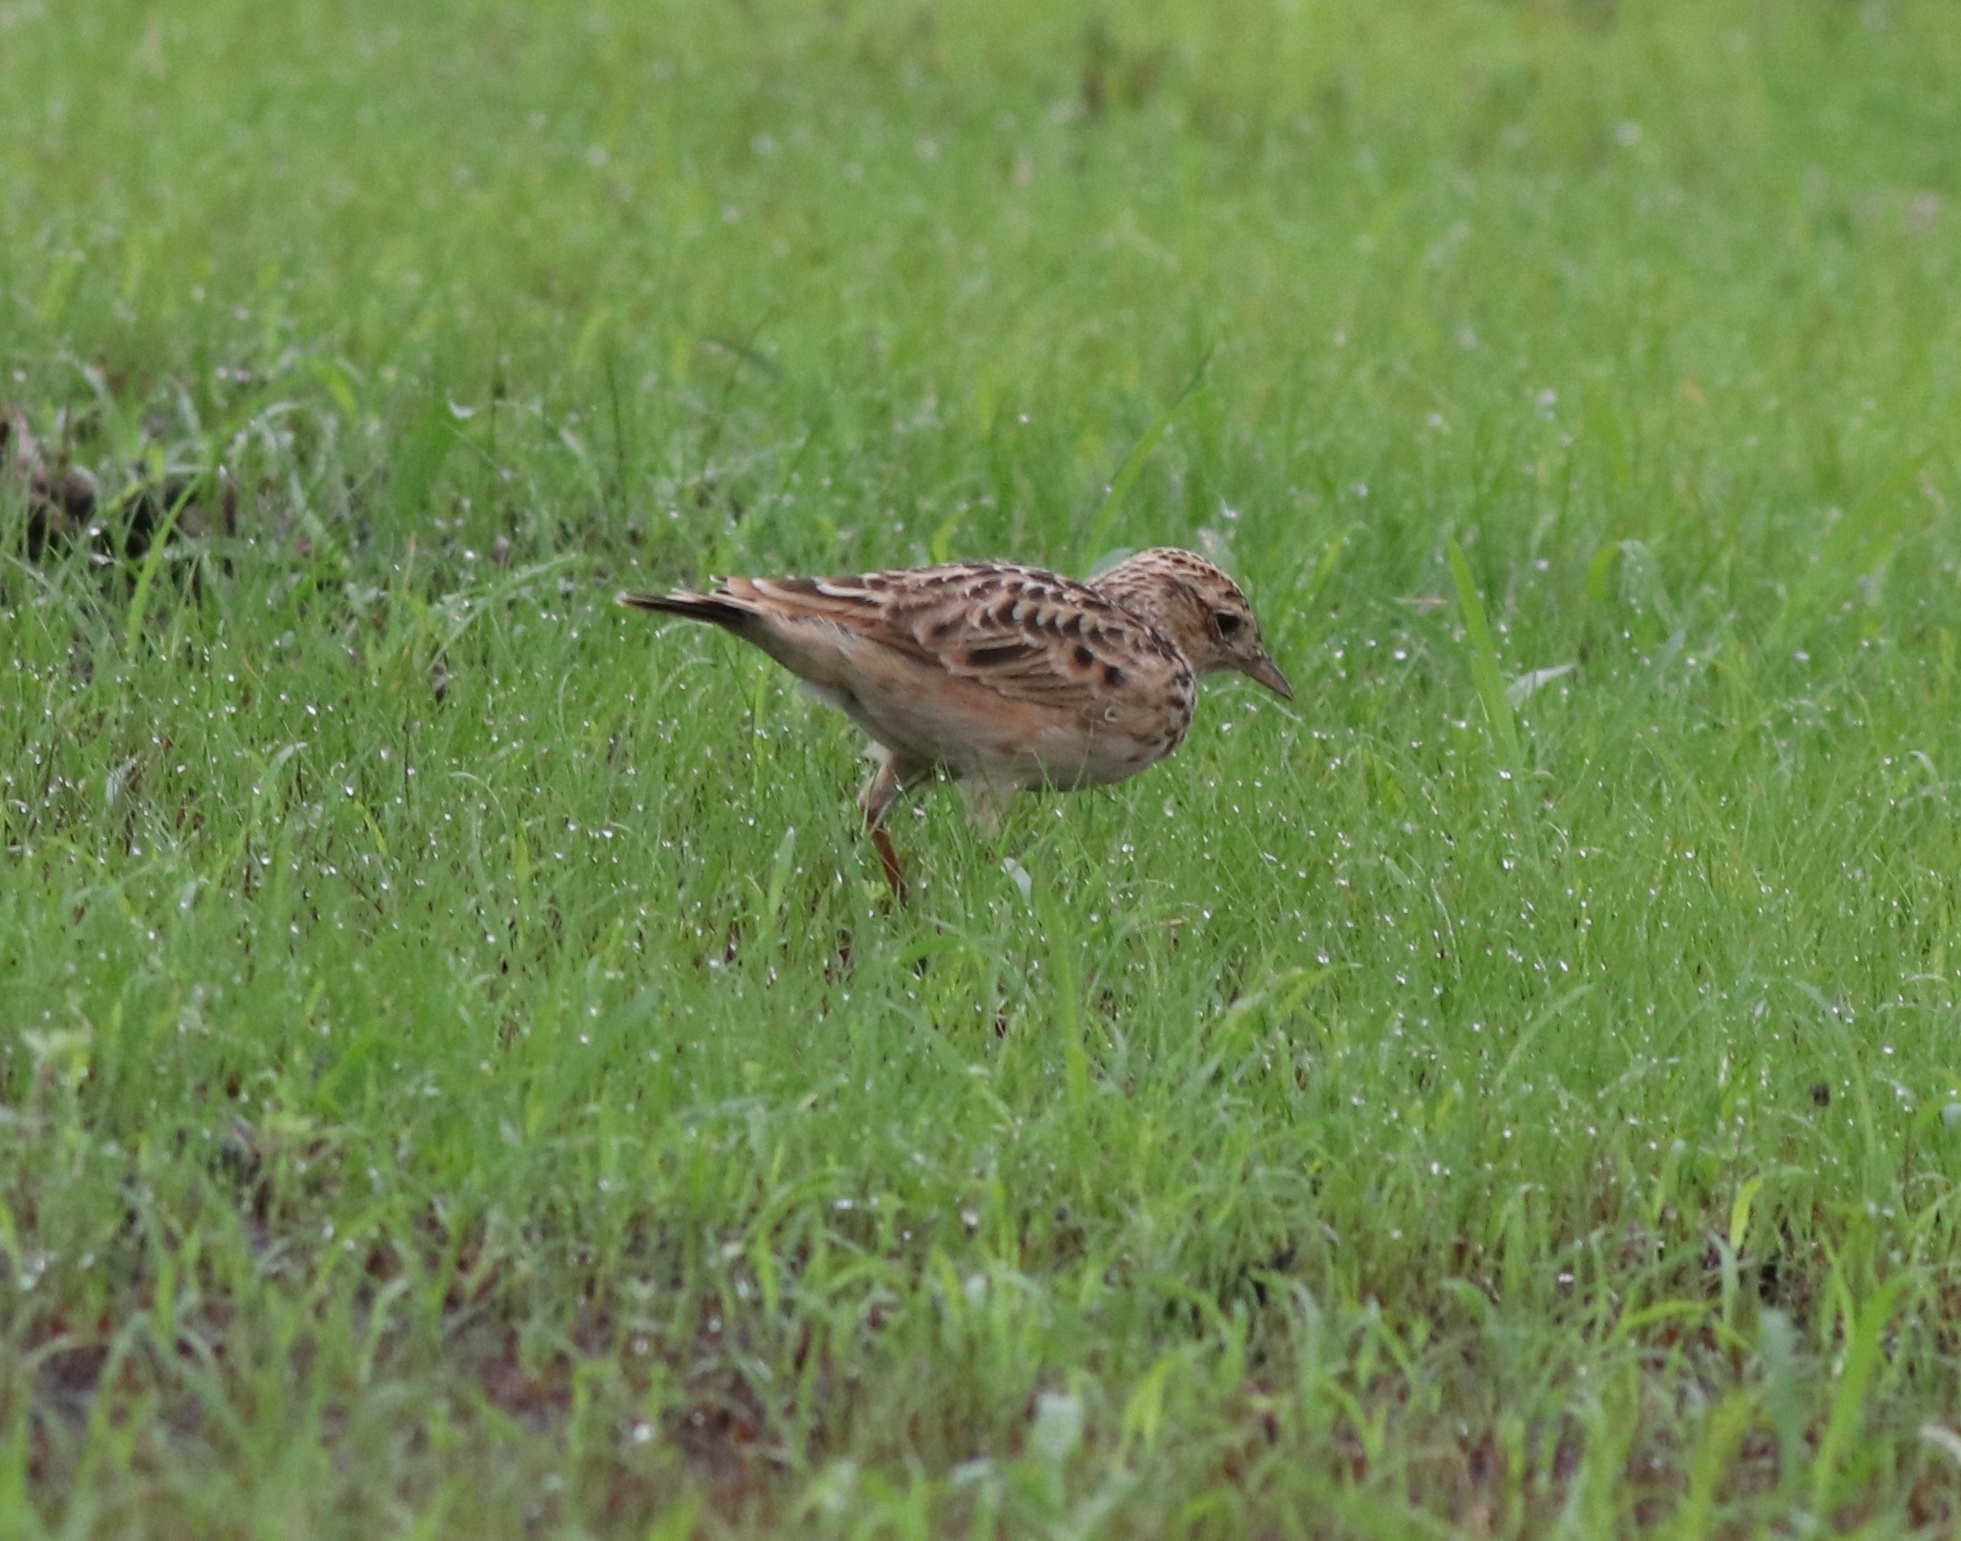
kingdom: Animalia
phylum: Chordata
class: Aves
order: Passeriformes
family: Alaudidae
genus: Alauda
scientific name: Alauda gulgula
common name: Oriental skylark
